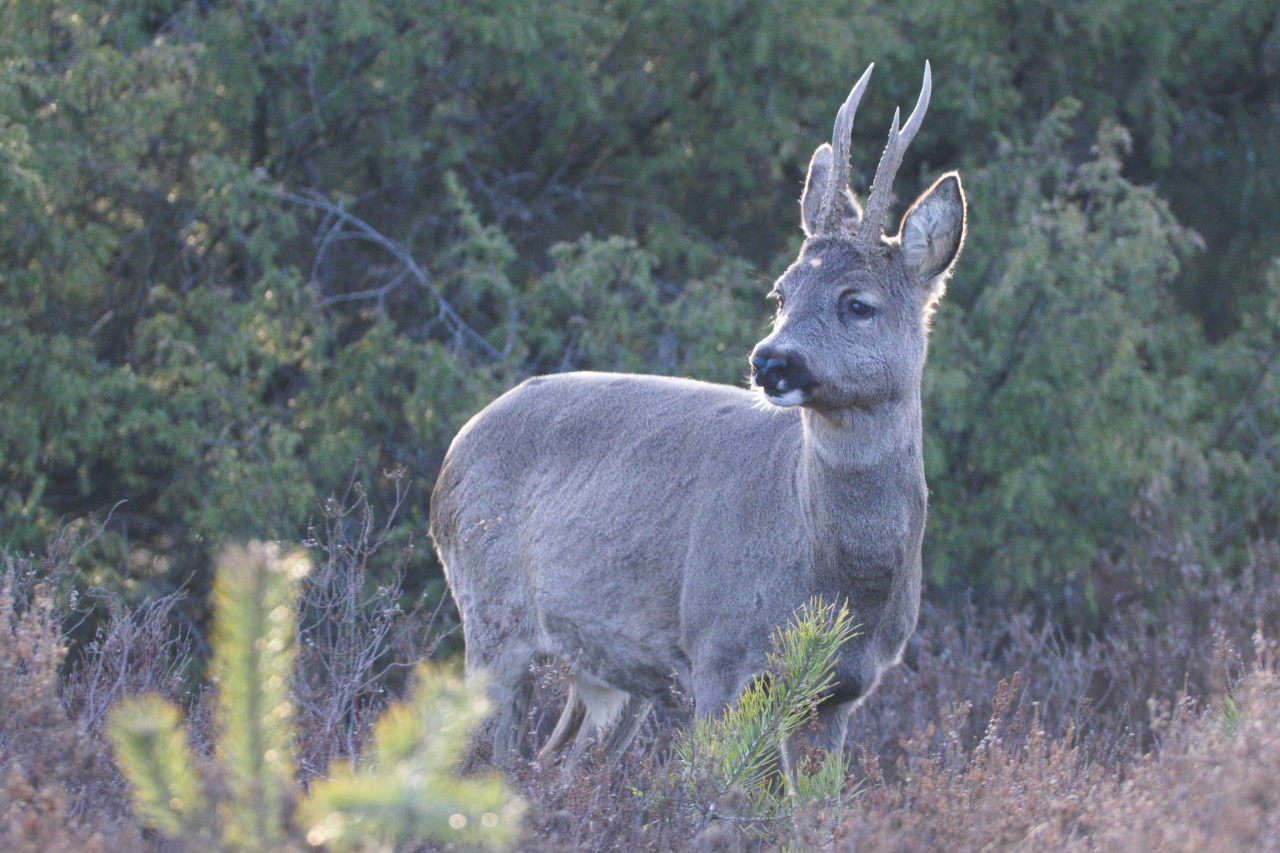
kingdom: Animalia
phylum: Chordata
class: Mammalia
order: Artiodactyla
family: Cervidae
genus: Capreolus
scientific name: Capreolus capreolus
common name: Western roe deer
